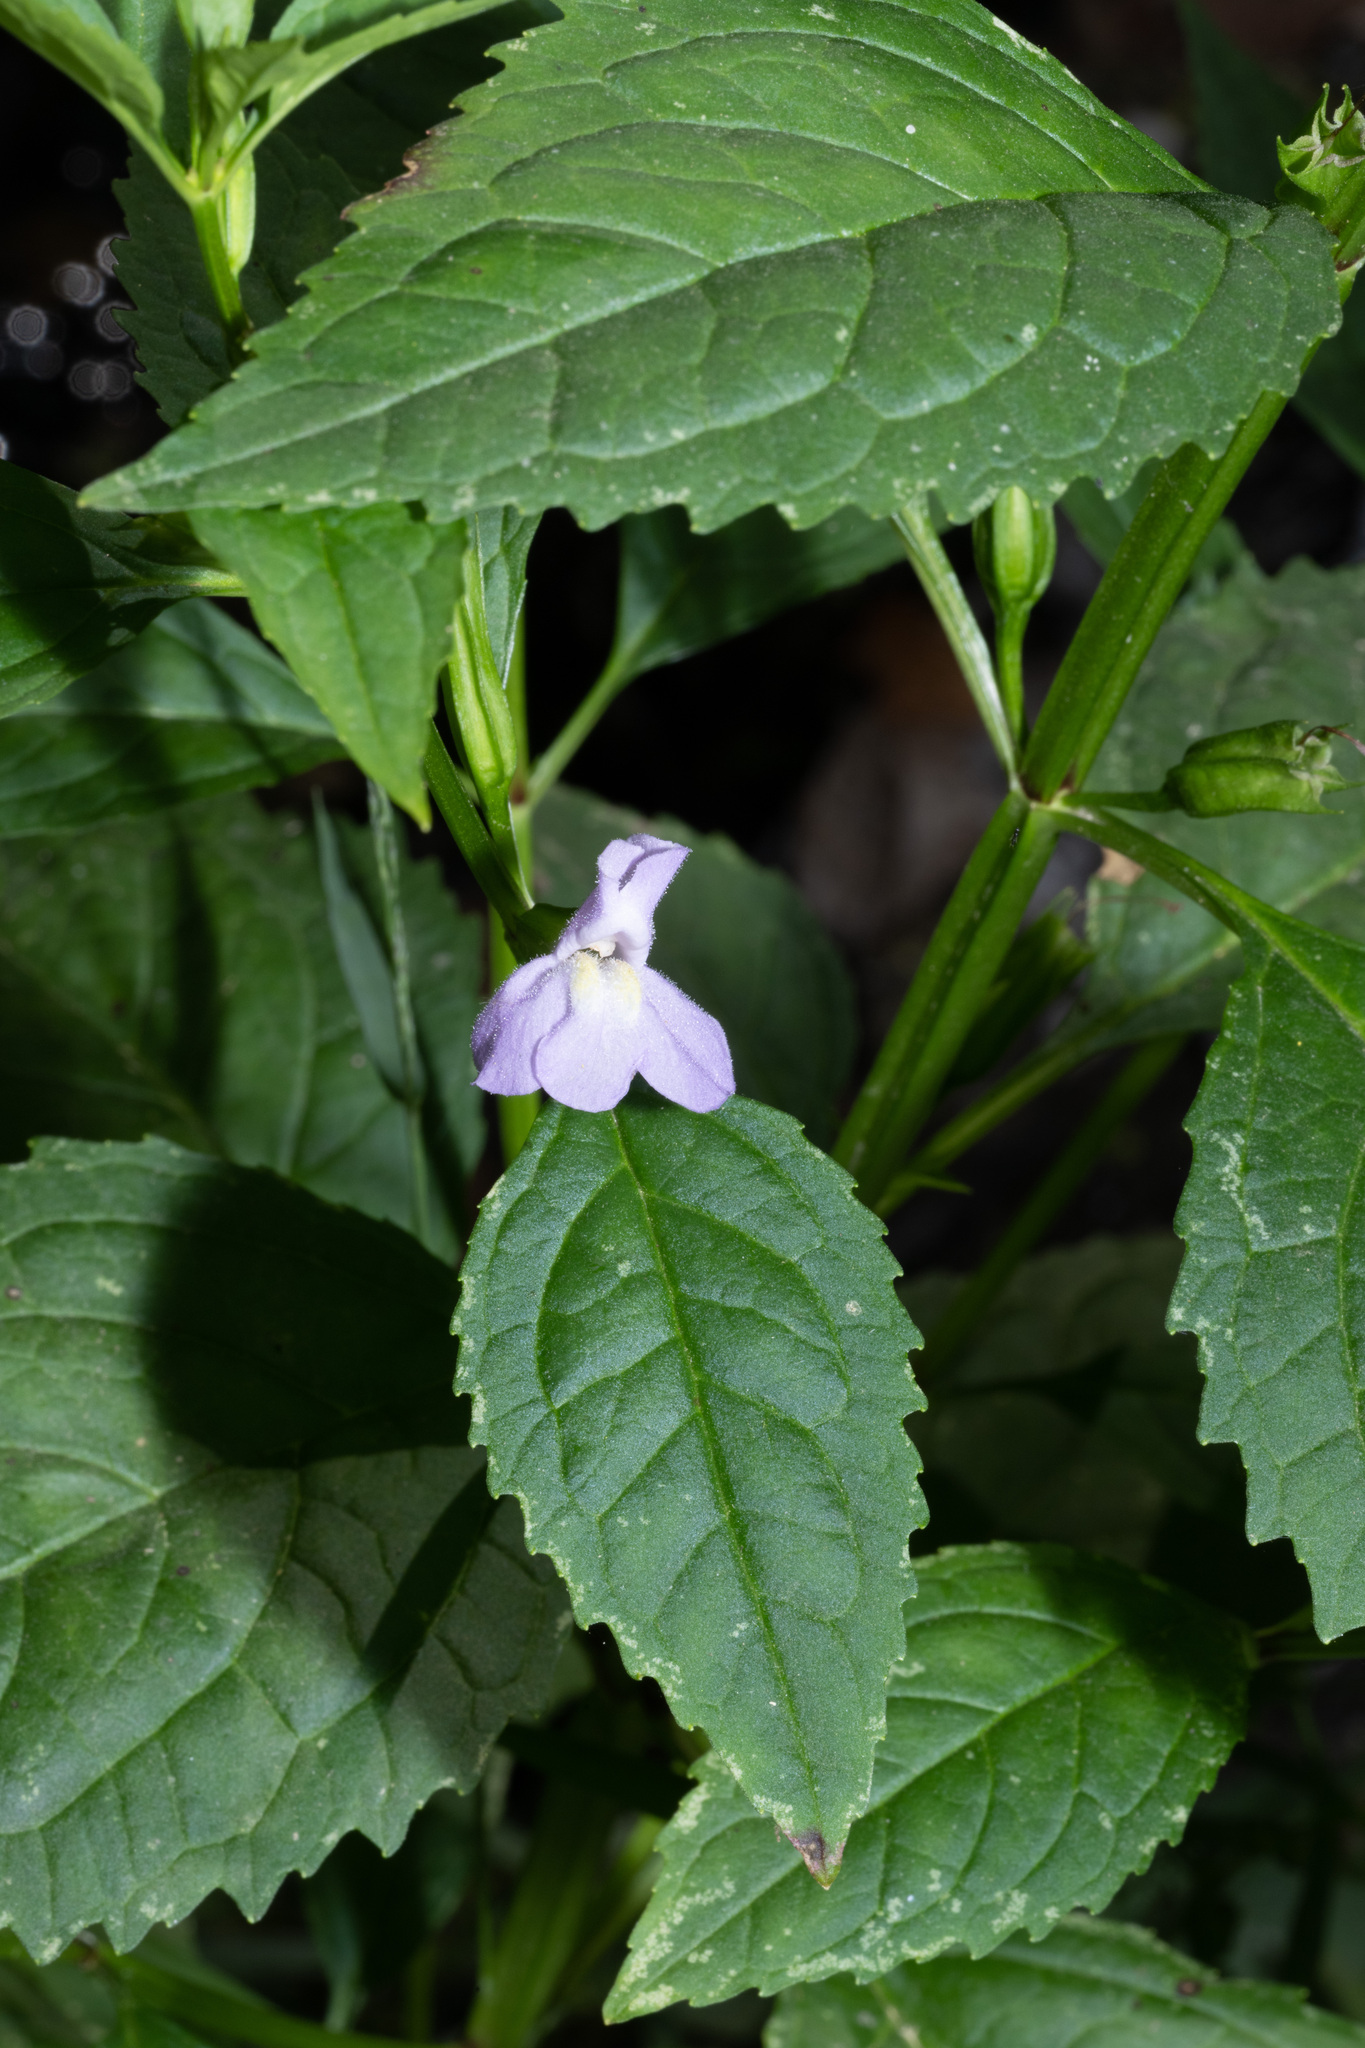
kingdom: Plantae
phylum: Tracheophyta
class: Magnoliopsida
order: Lamiales
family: Phrymaceae
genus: Mimulus
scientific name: Mimulus alatus
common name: Sharp-wing monkey-flower
